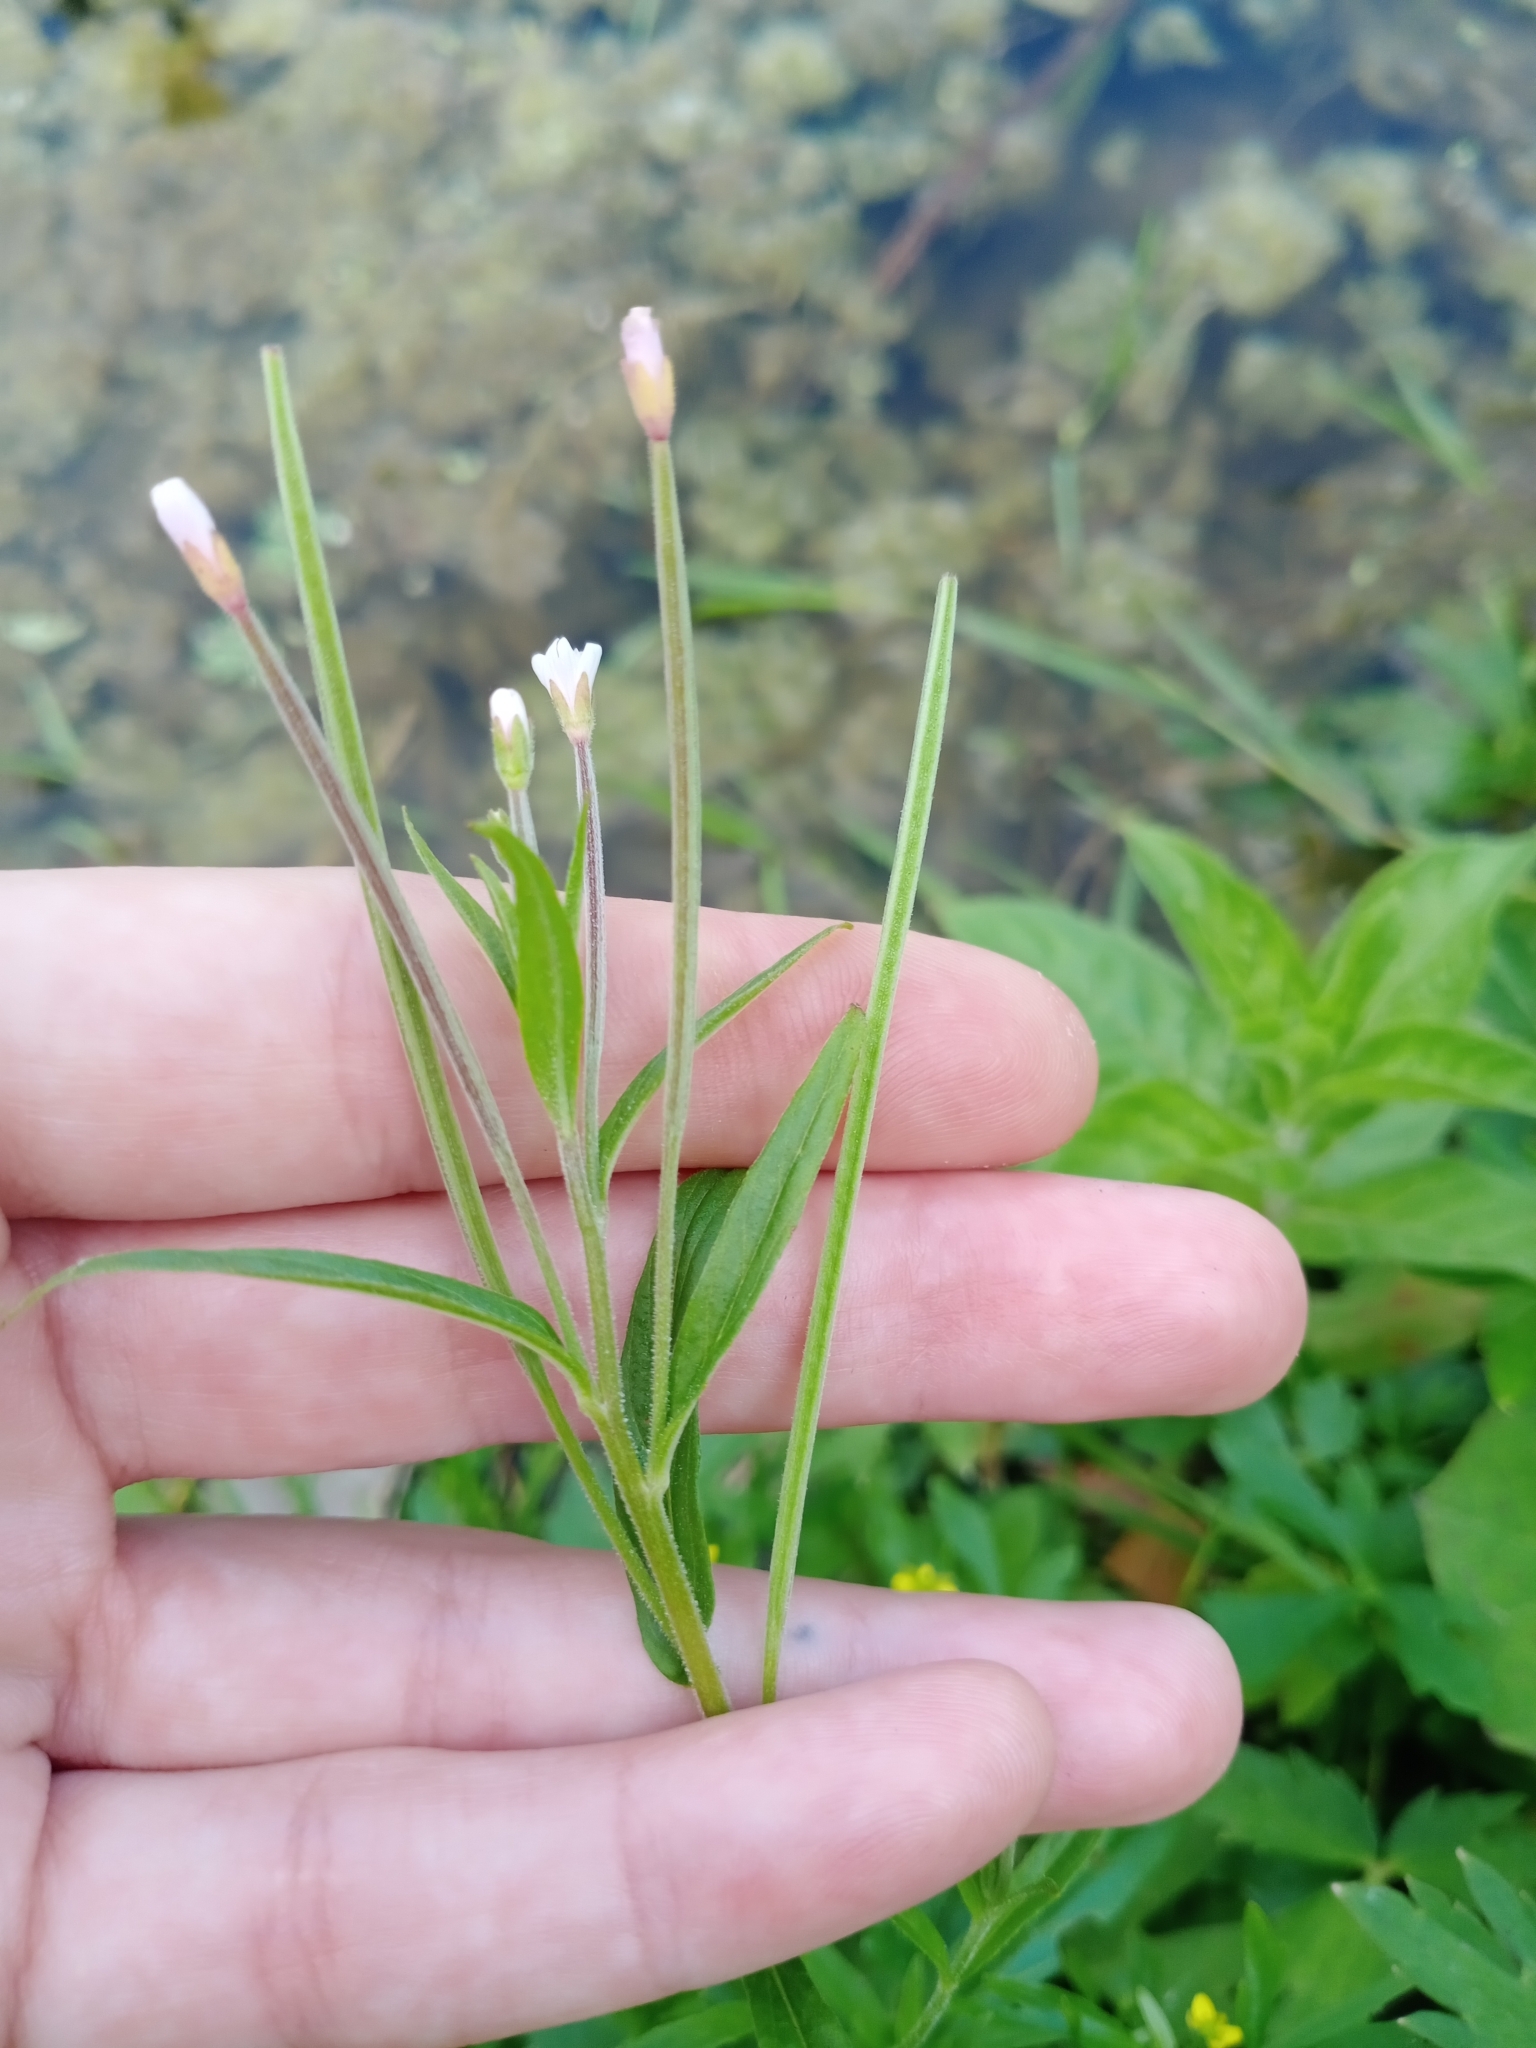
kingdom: Plantae
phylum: Tracheophyta
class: Magnoliopsida
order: Myrtales
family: Onagraceae
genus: Epilobium
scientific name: Epilobium palustre
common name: Marsh willowherb
